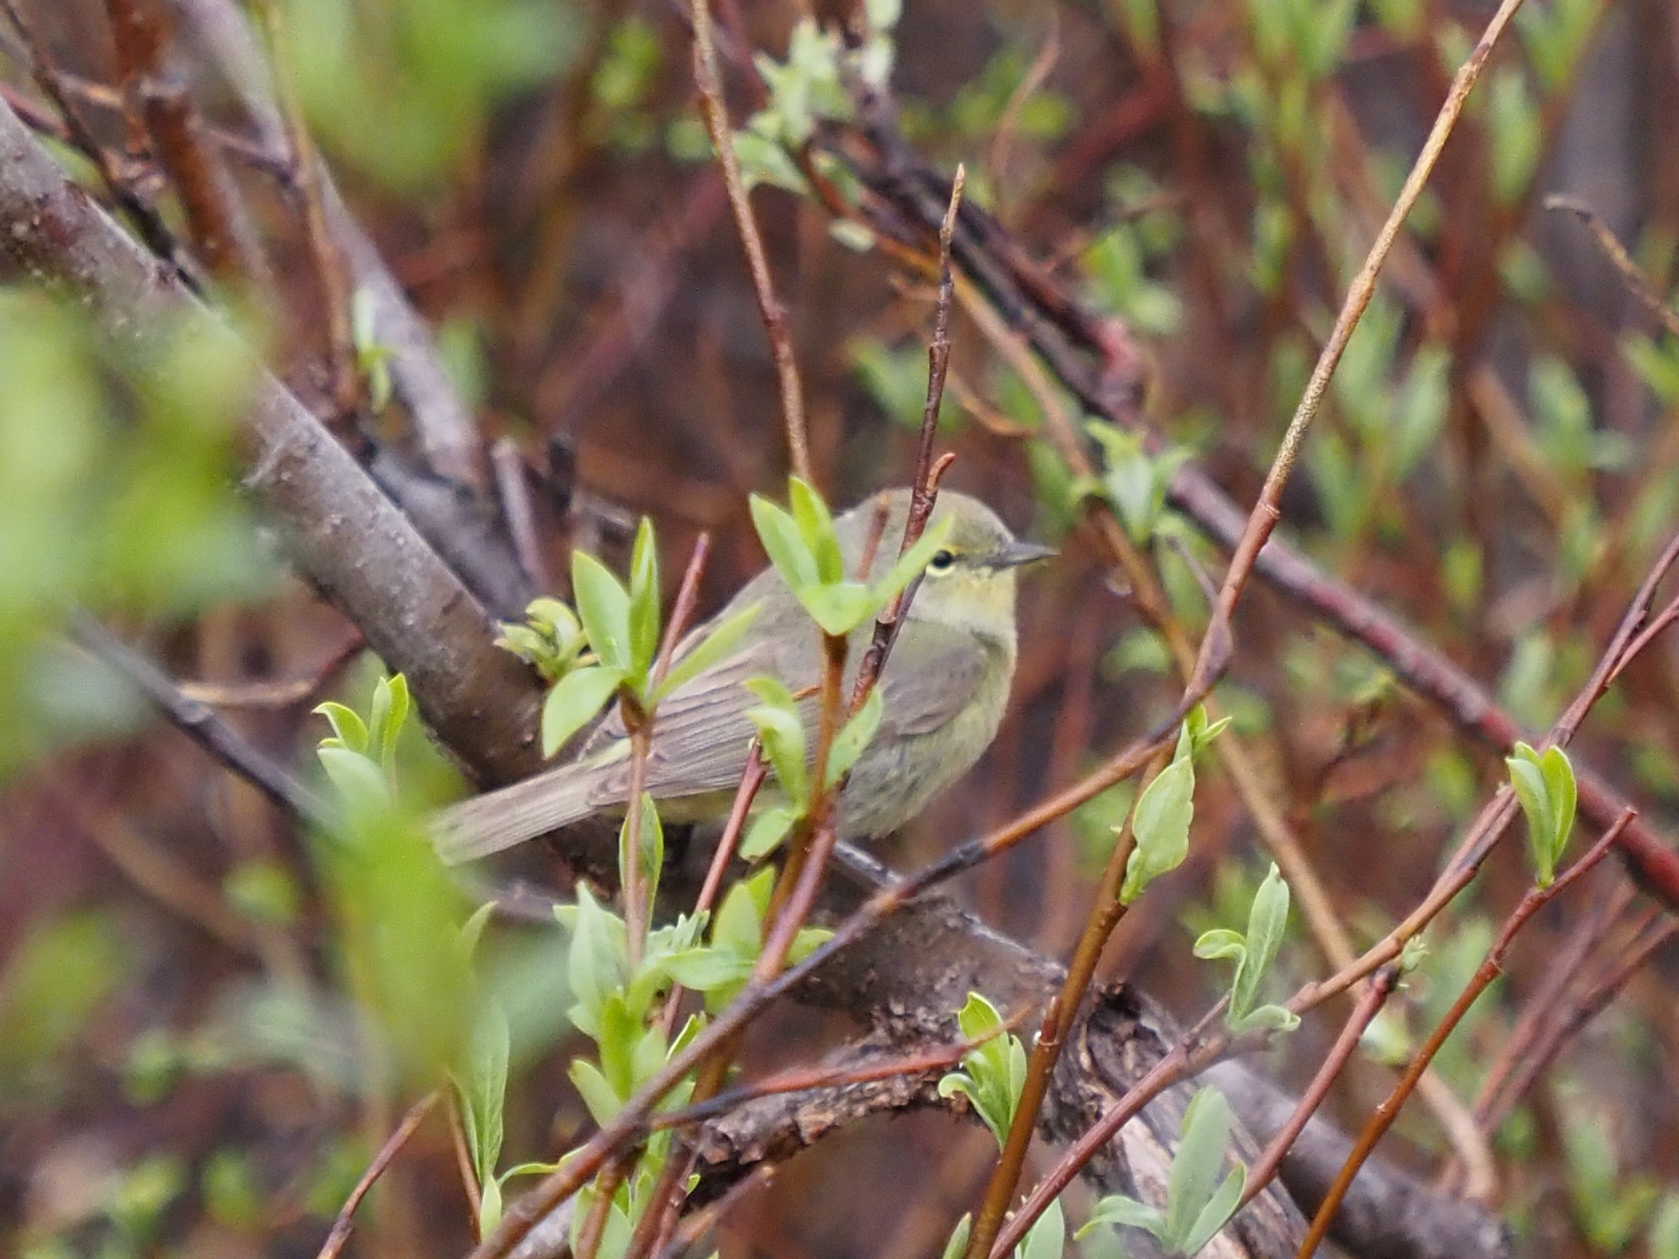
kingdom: Animalia
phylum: Chordata
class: Aves
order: Passeriformes
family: Parulidae
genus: Leiothlypis
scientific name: Leiothlypis celata
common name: Orange-crowned warbler
